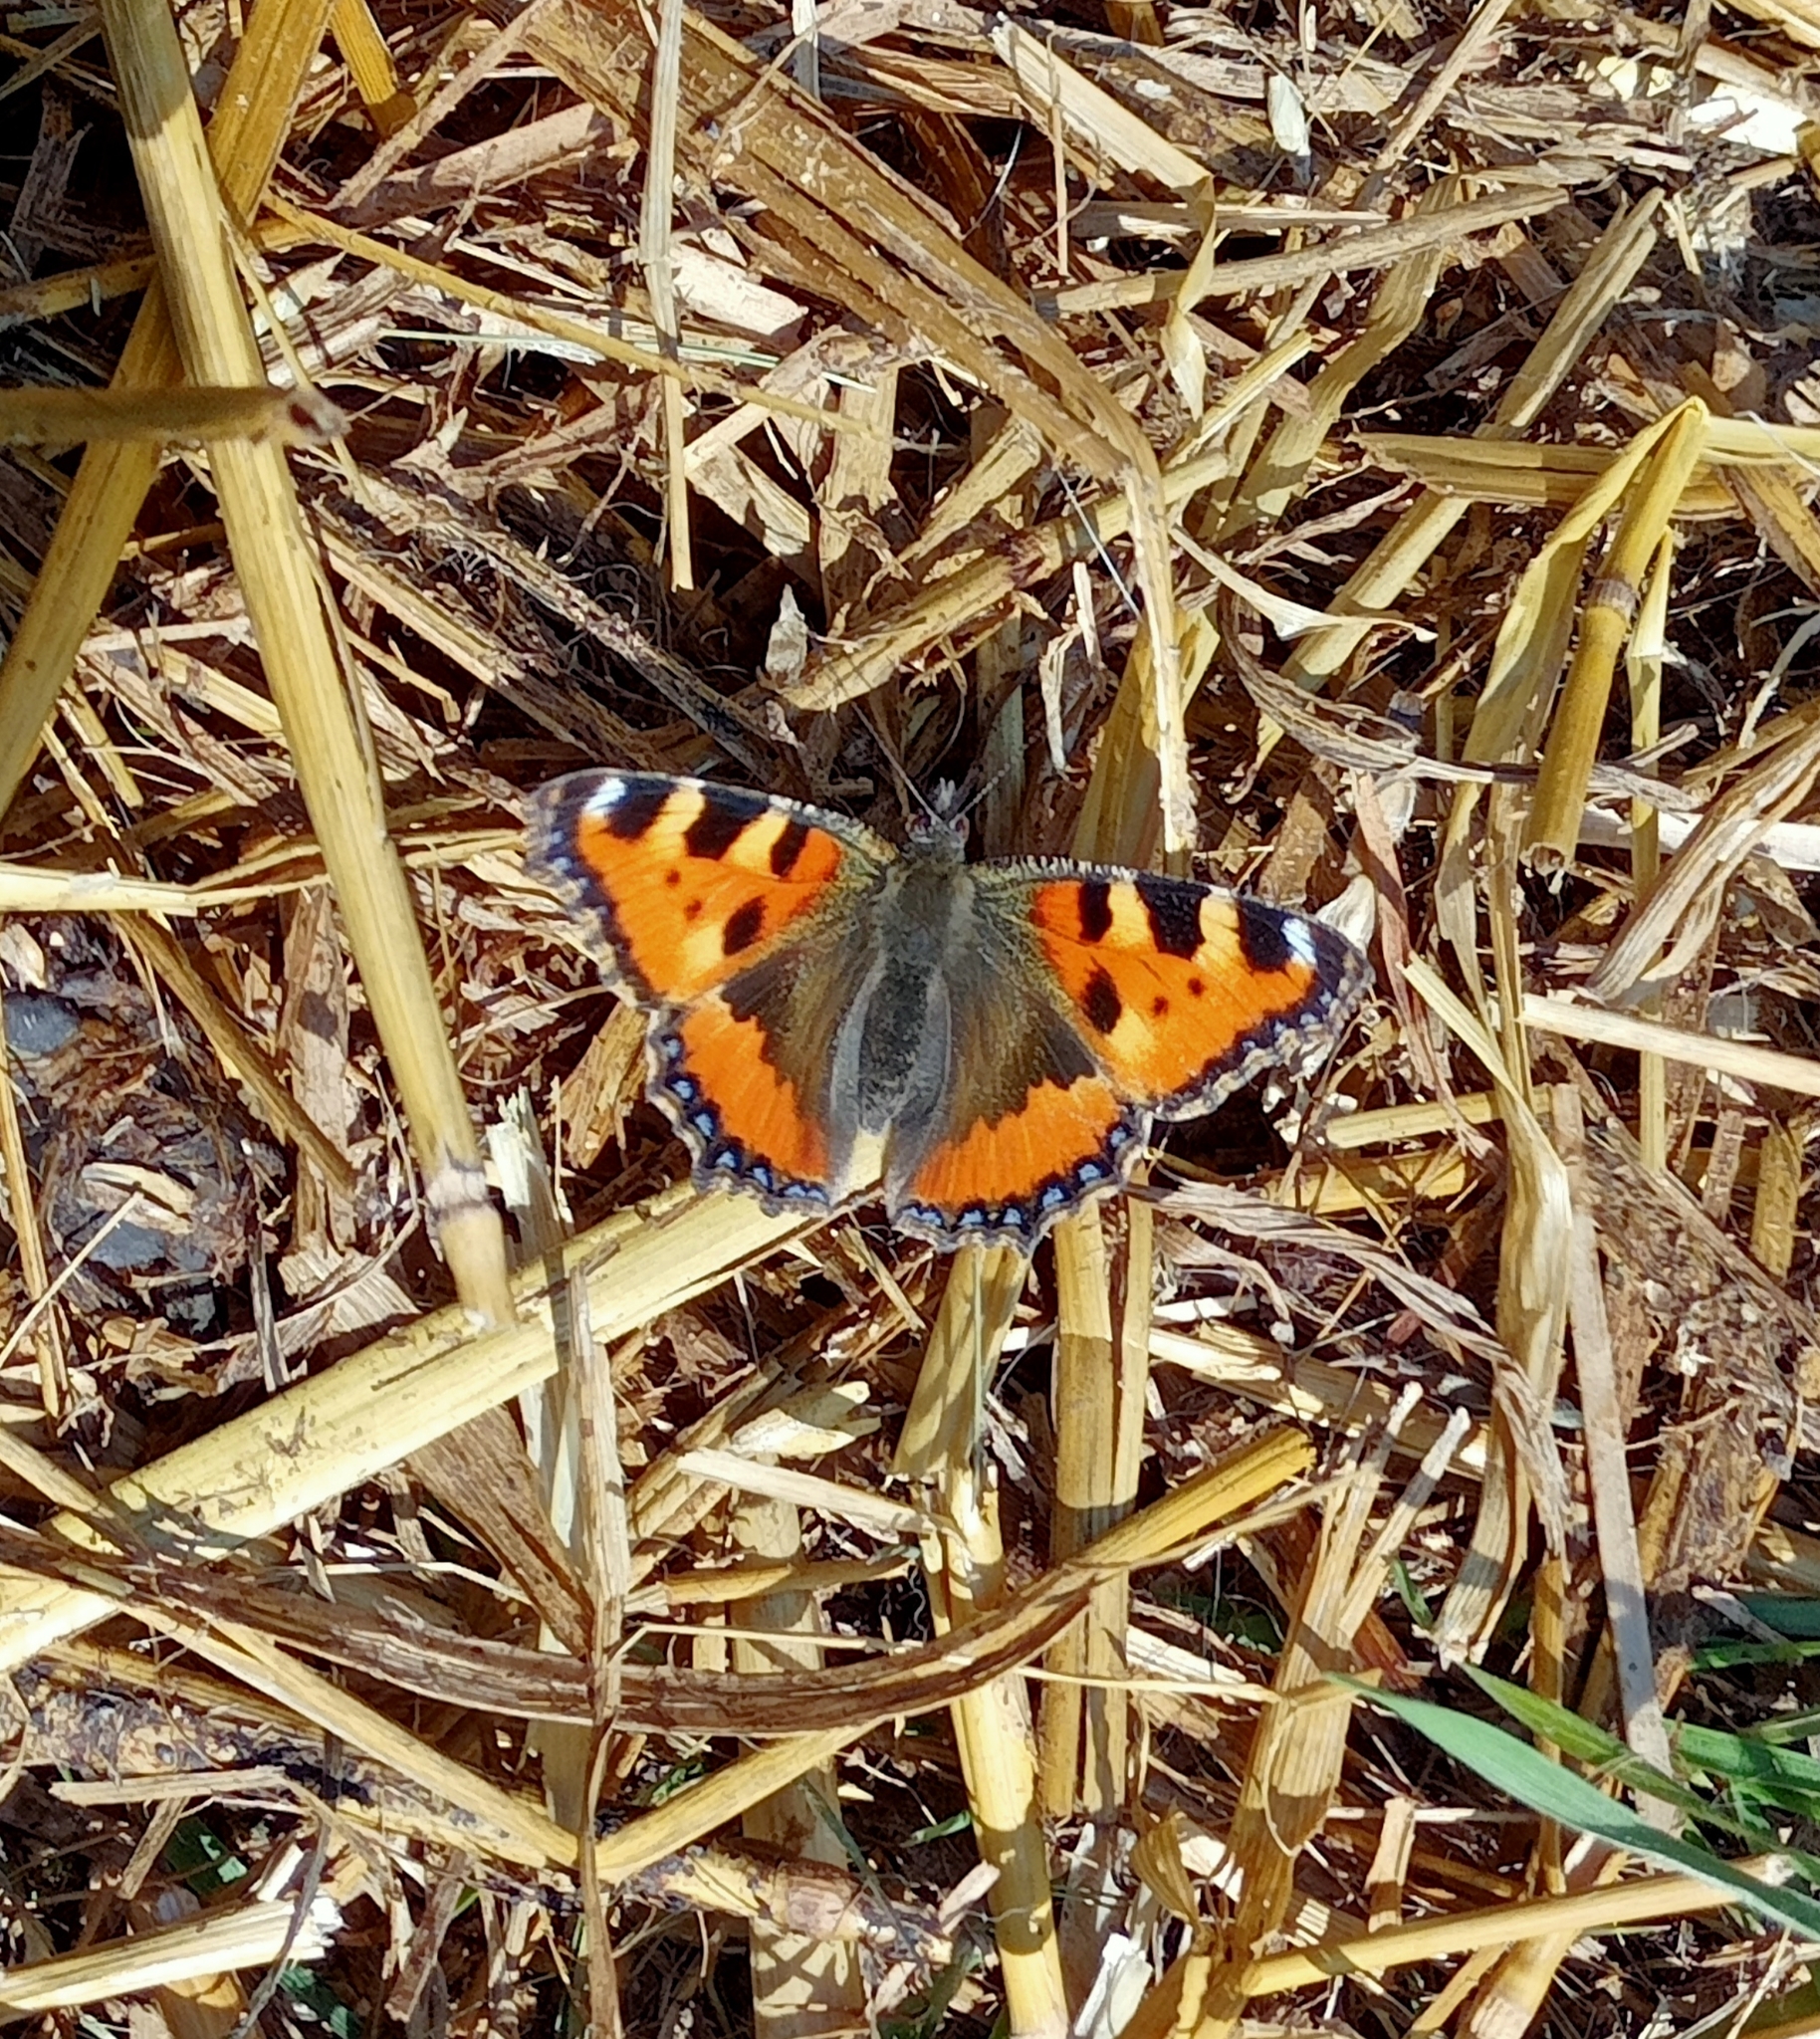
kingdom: Animalia
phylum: Arthropoda
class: Insecta
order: Lepidoptera
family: Nymphalidae
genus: Aglais
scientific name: Aglais urticae
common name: Small tortoiseshell
